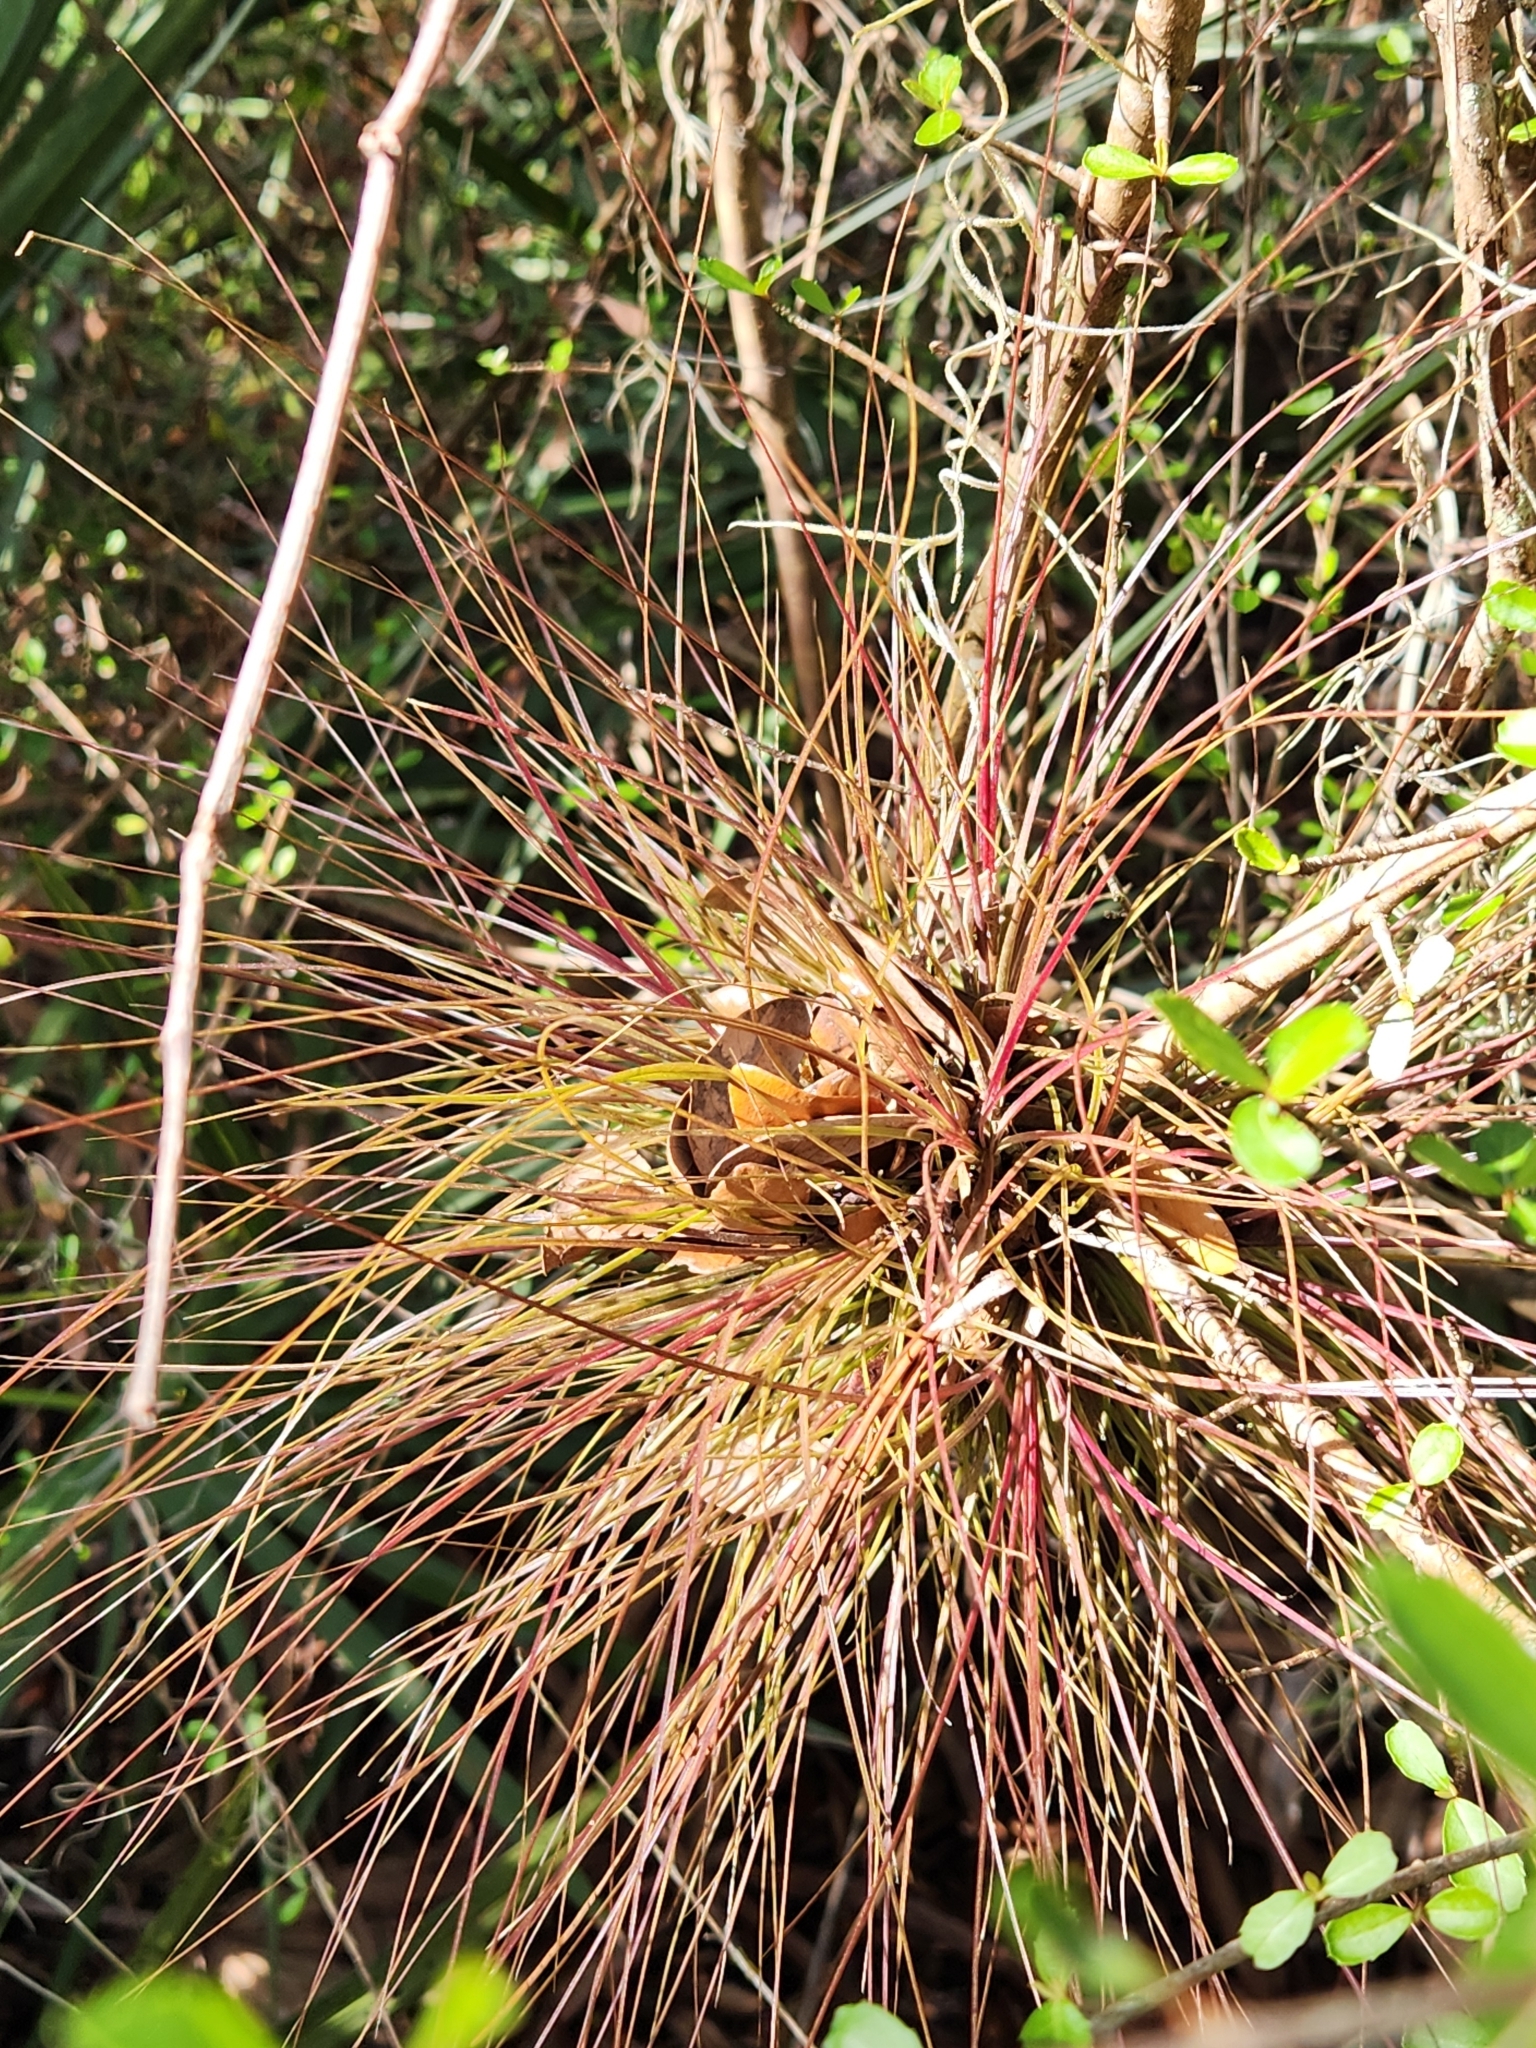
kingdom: Plantae
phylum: Tracheophyta
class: Liliopsida
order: Poales
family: Bromeliaceae
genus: Tillandsia
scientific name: Tillandsia setacea
